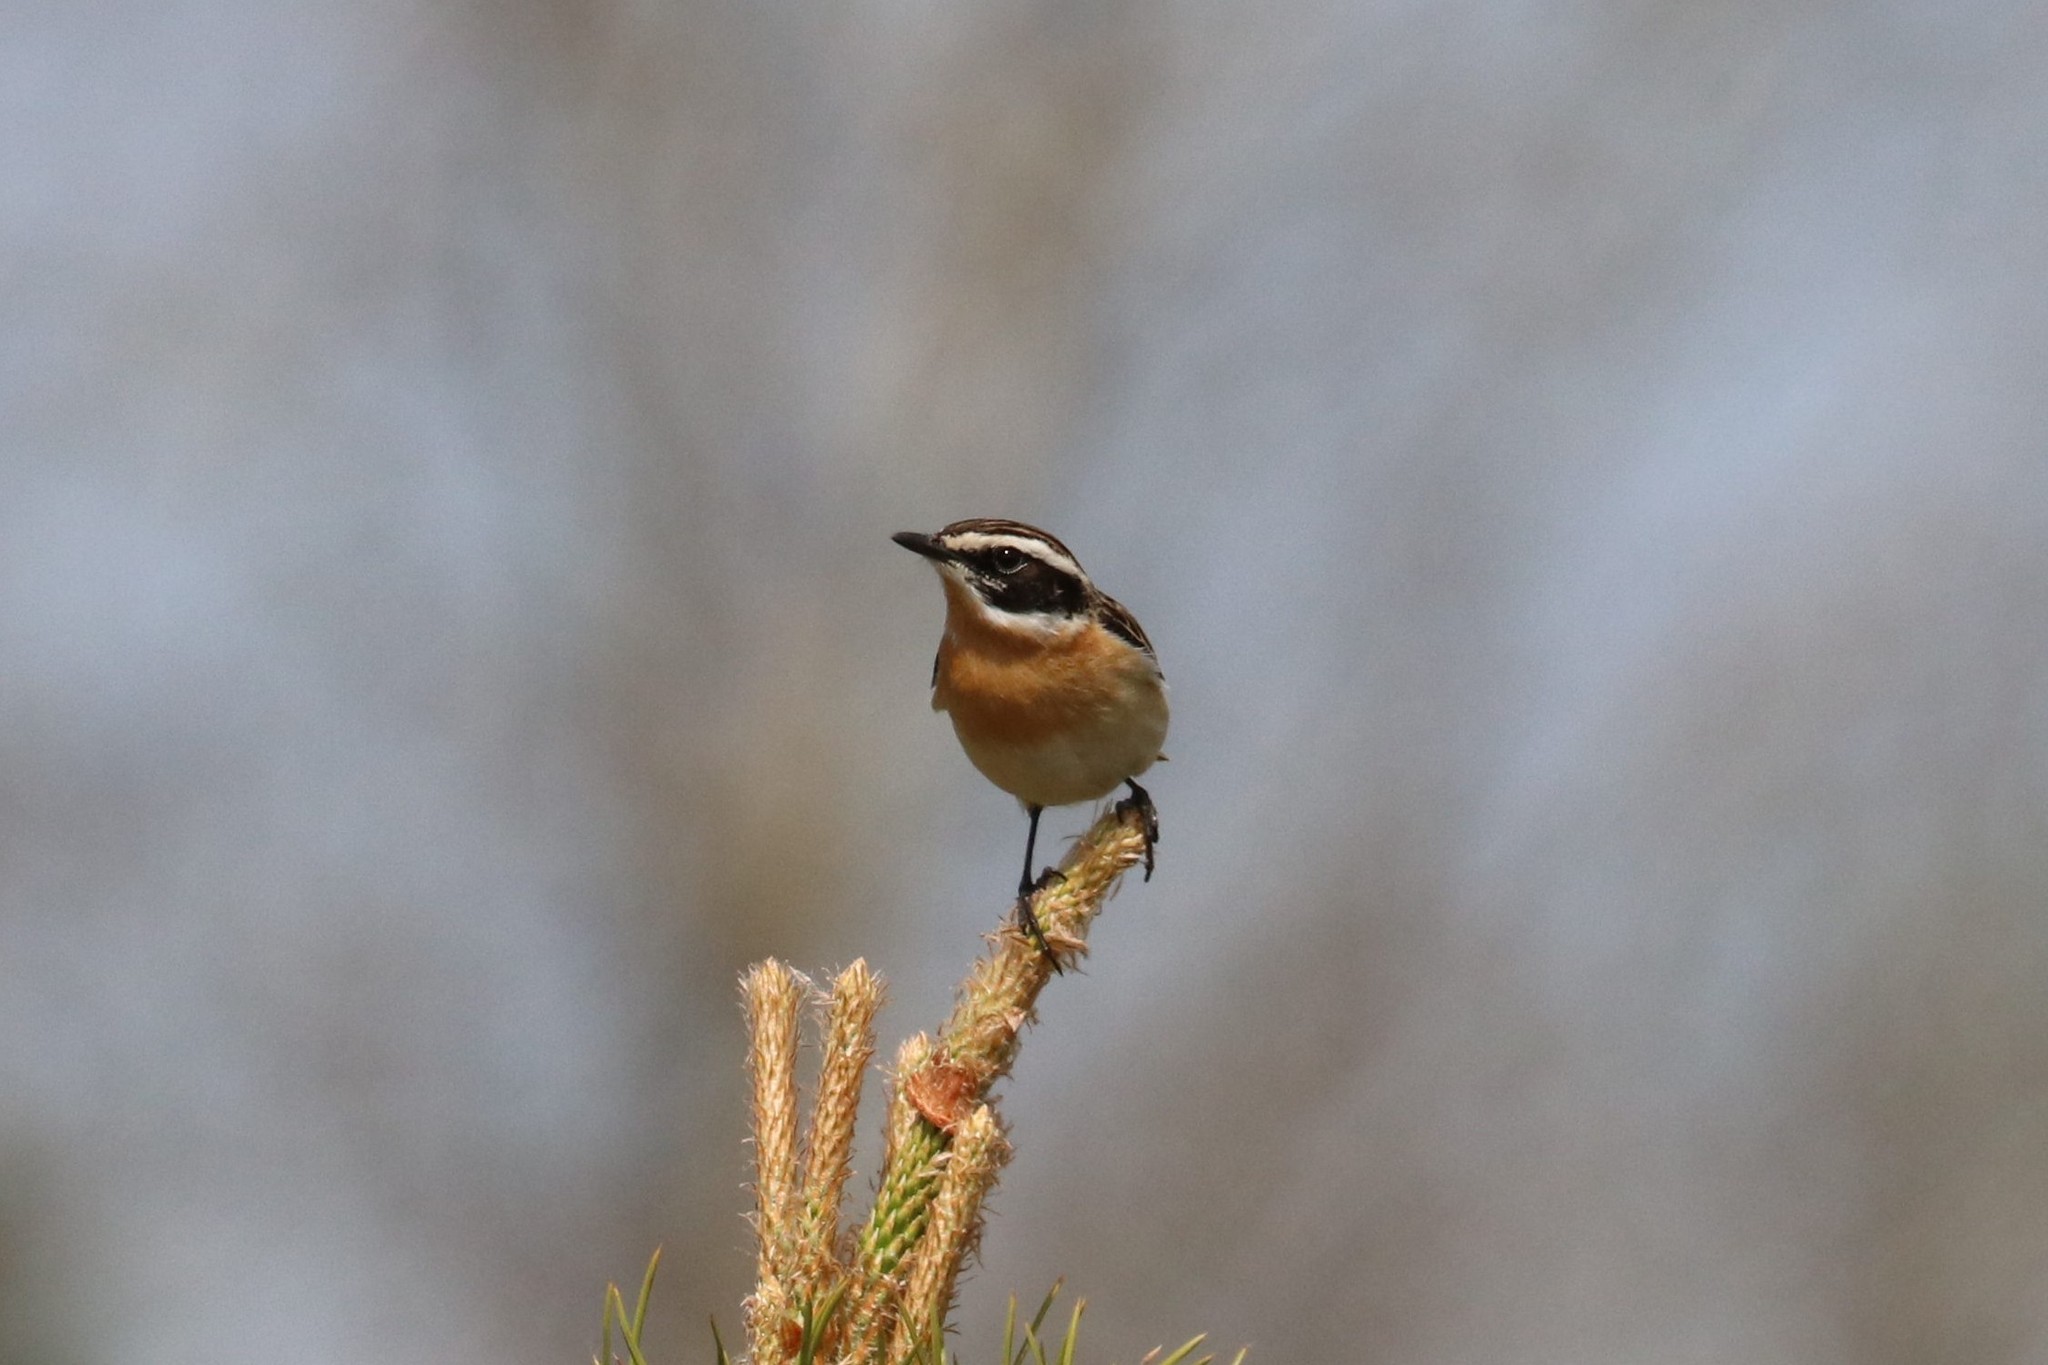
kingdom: Animalia
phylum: Chordata
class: Aves
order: Passeriformes
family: Muscicapidae
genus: Saxicola
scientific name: Saxicola rubetra
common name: Whinchat
